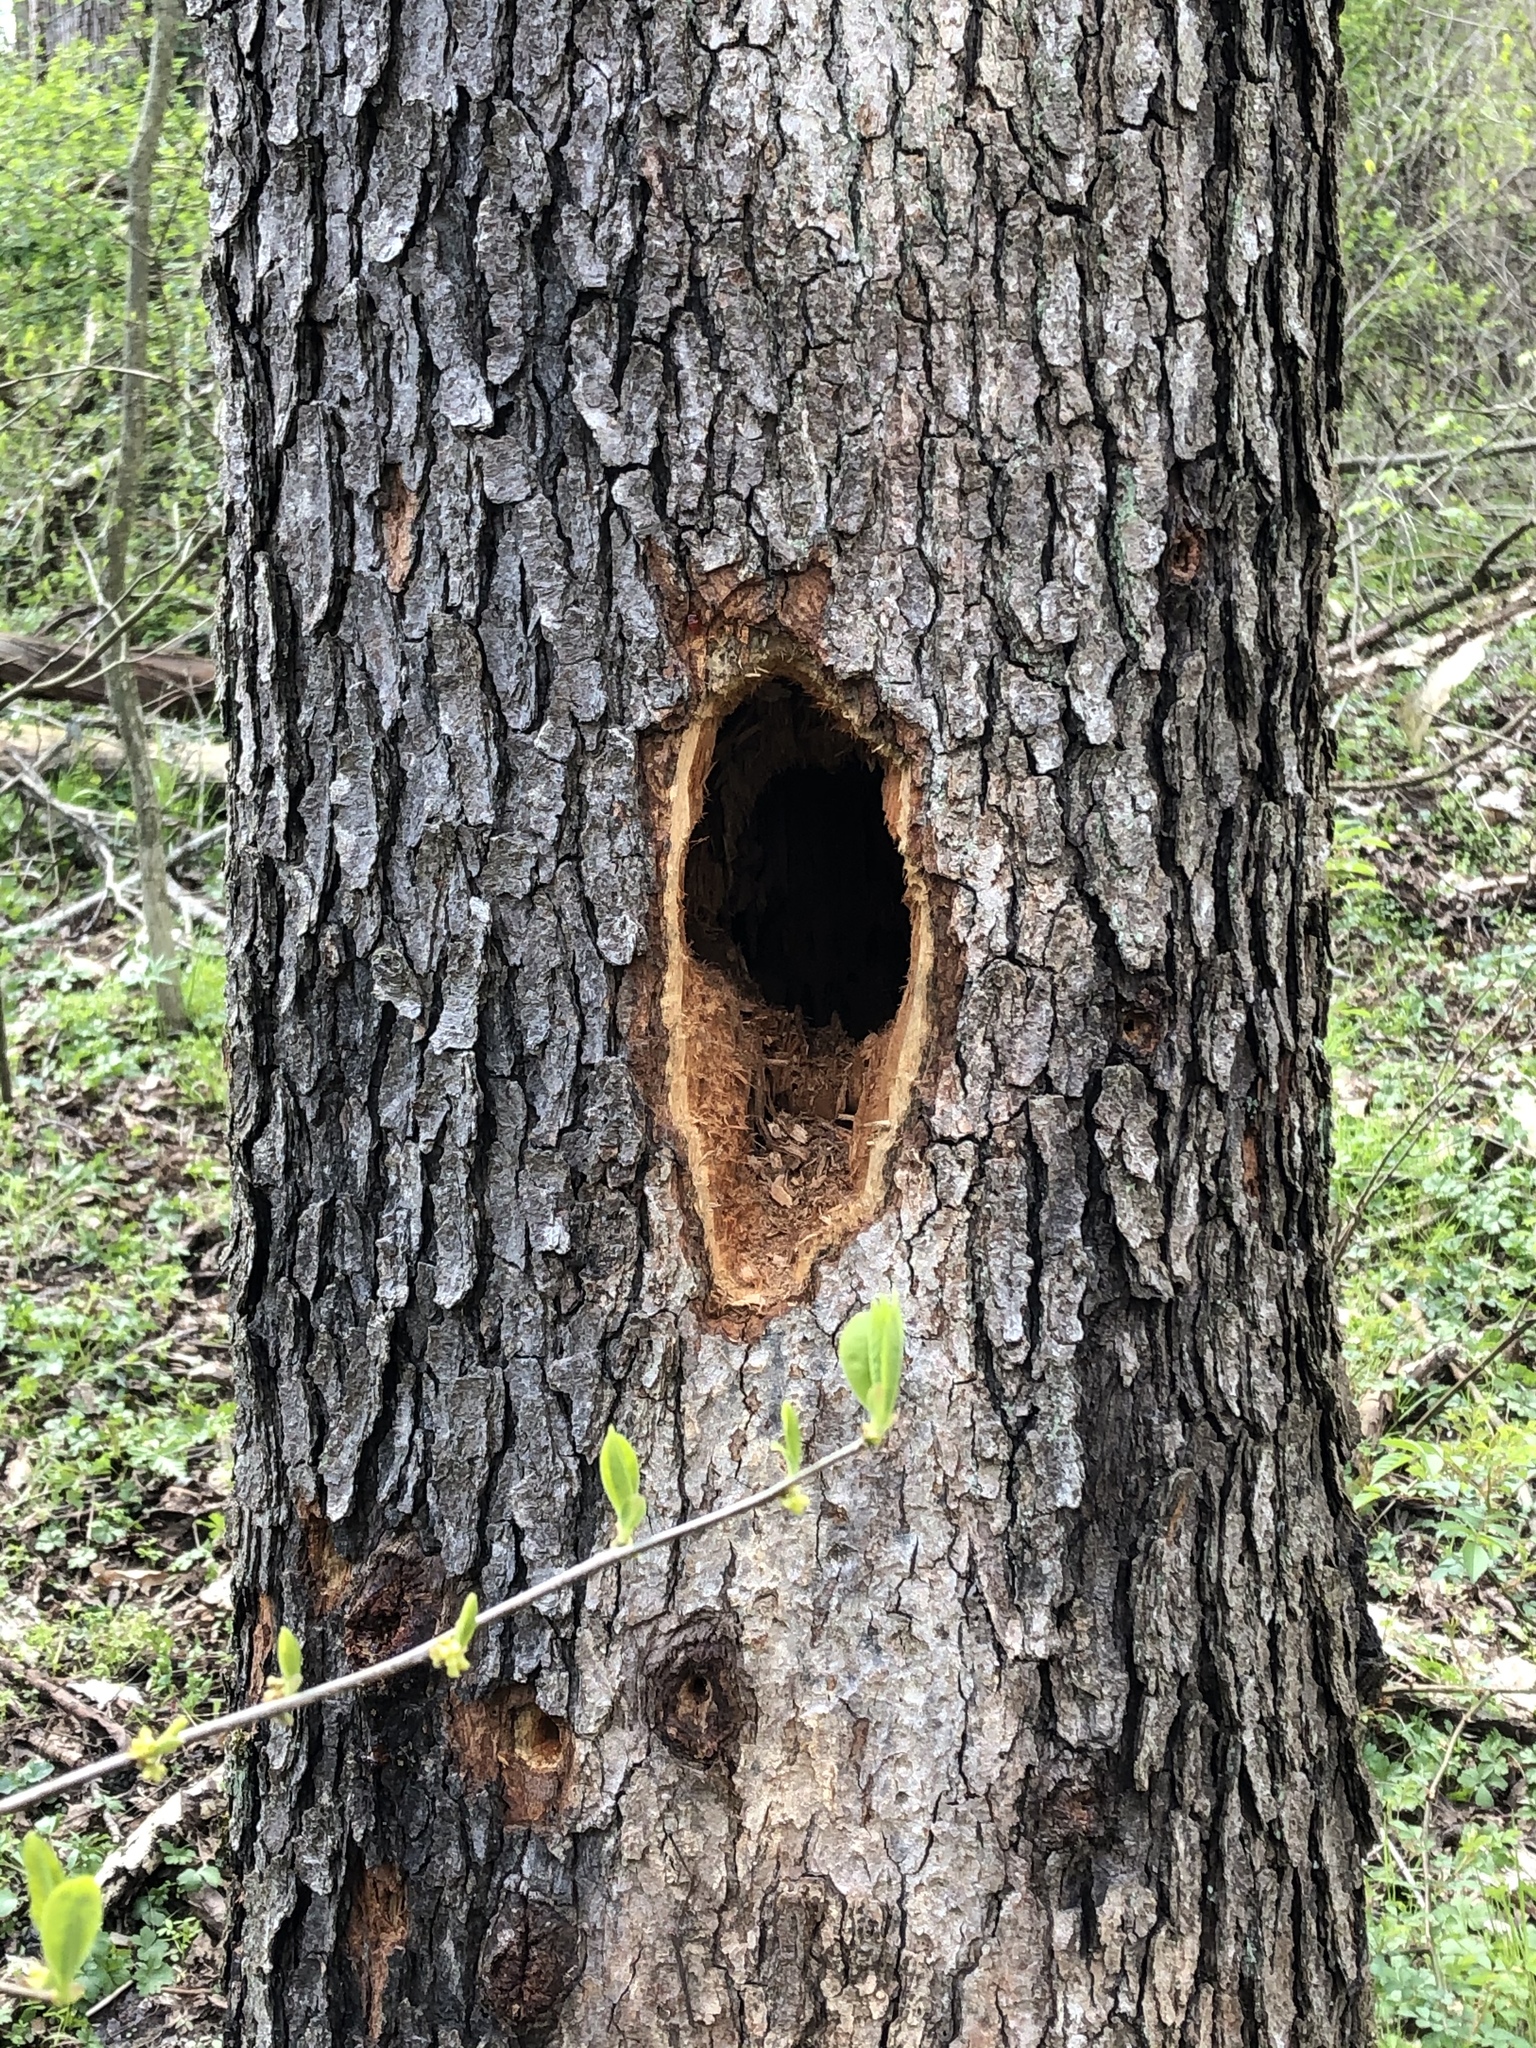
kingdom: Animalia
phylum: Chordata
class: Aves
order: Piciformes
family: Picidae
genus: Dryocopus
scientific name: Dryocopus pileatus
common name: Pileated woodpecker
